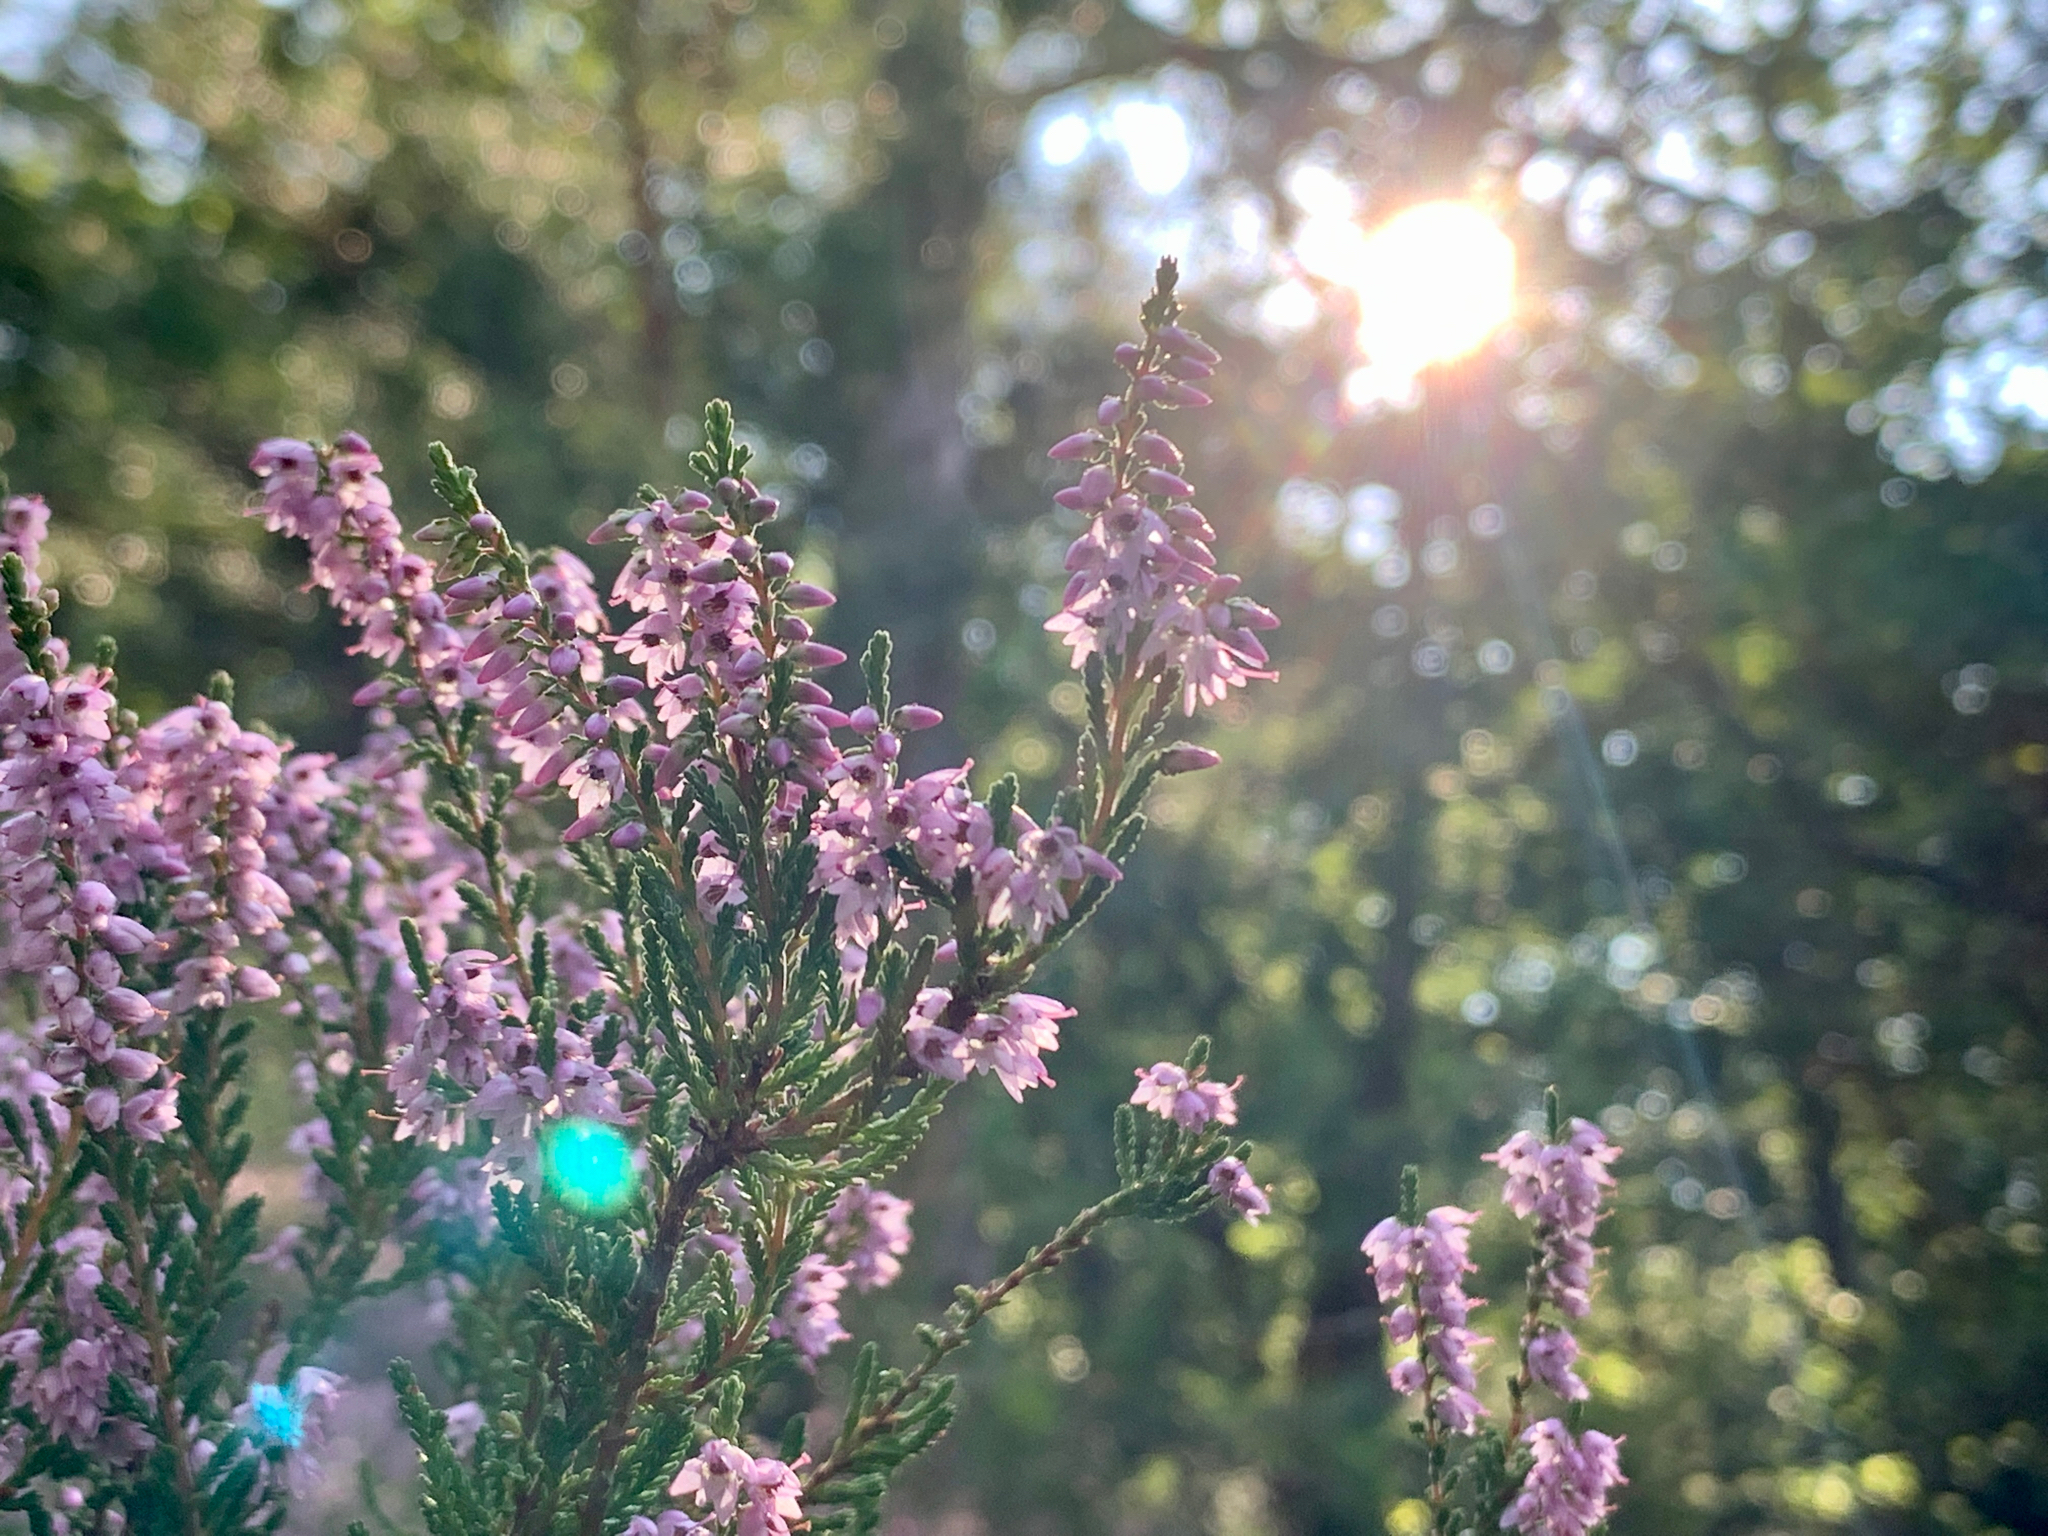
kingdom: Plantae
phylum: Tracheophyta
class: Magnoliopsida
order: Ericales
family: Ericaceae
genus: Calluna
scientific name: Calluna vulgaris
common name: Heather
